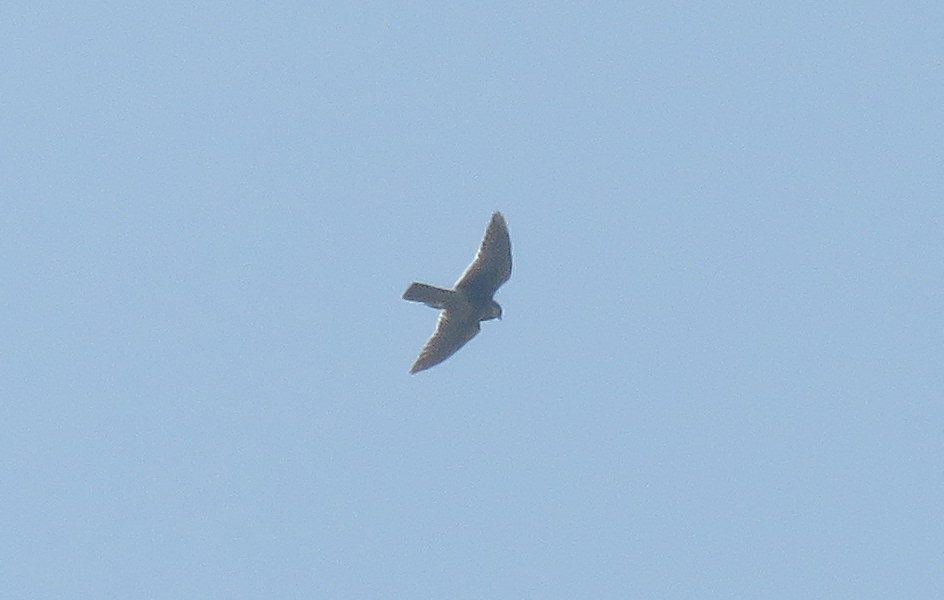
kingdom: Animalia
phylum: Chordata
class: Aves
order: Falconiformes
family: Falconidae
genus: Falco
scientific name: Falco femoralis
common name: Aplomado falcon
